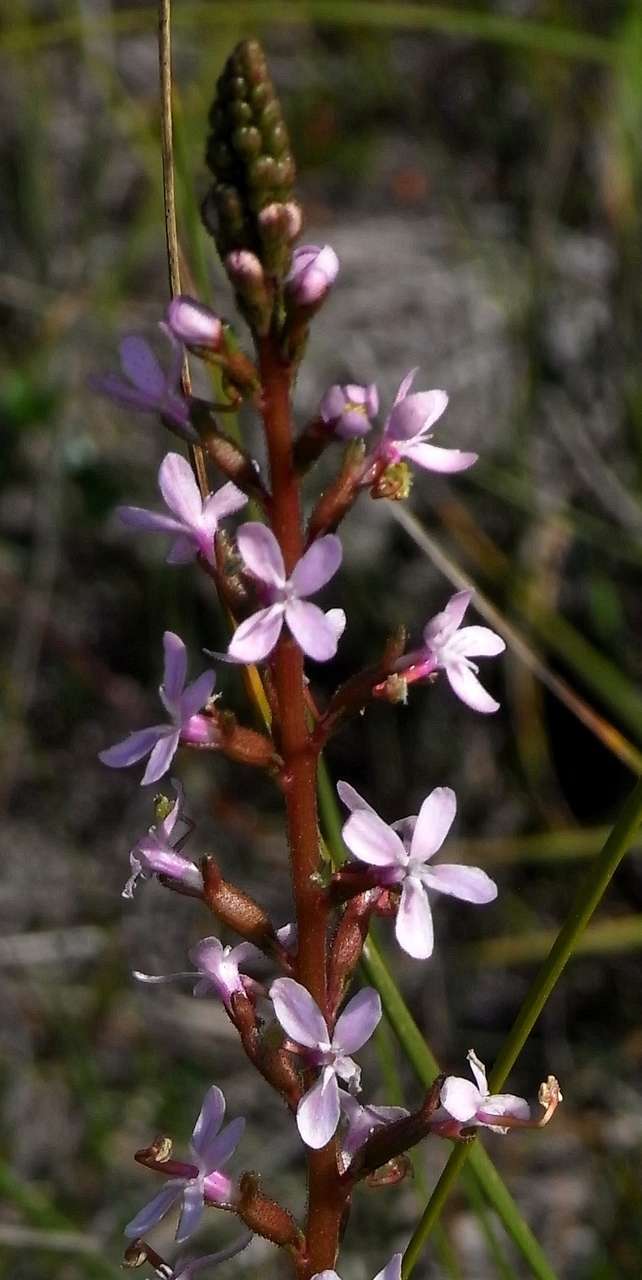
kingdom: Plantae
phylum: Tracheophyta
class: Magnoliopsida
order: Asterales
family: Stylidiaceae
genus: Stylidium
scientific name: Stylidium armeria
